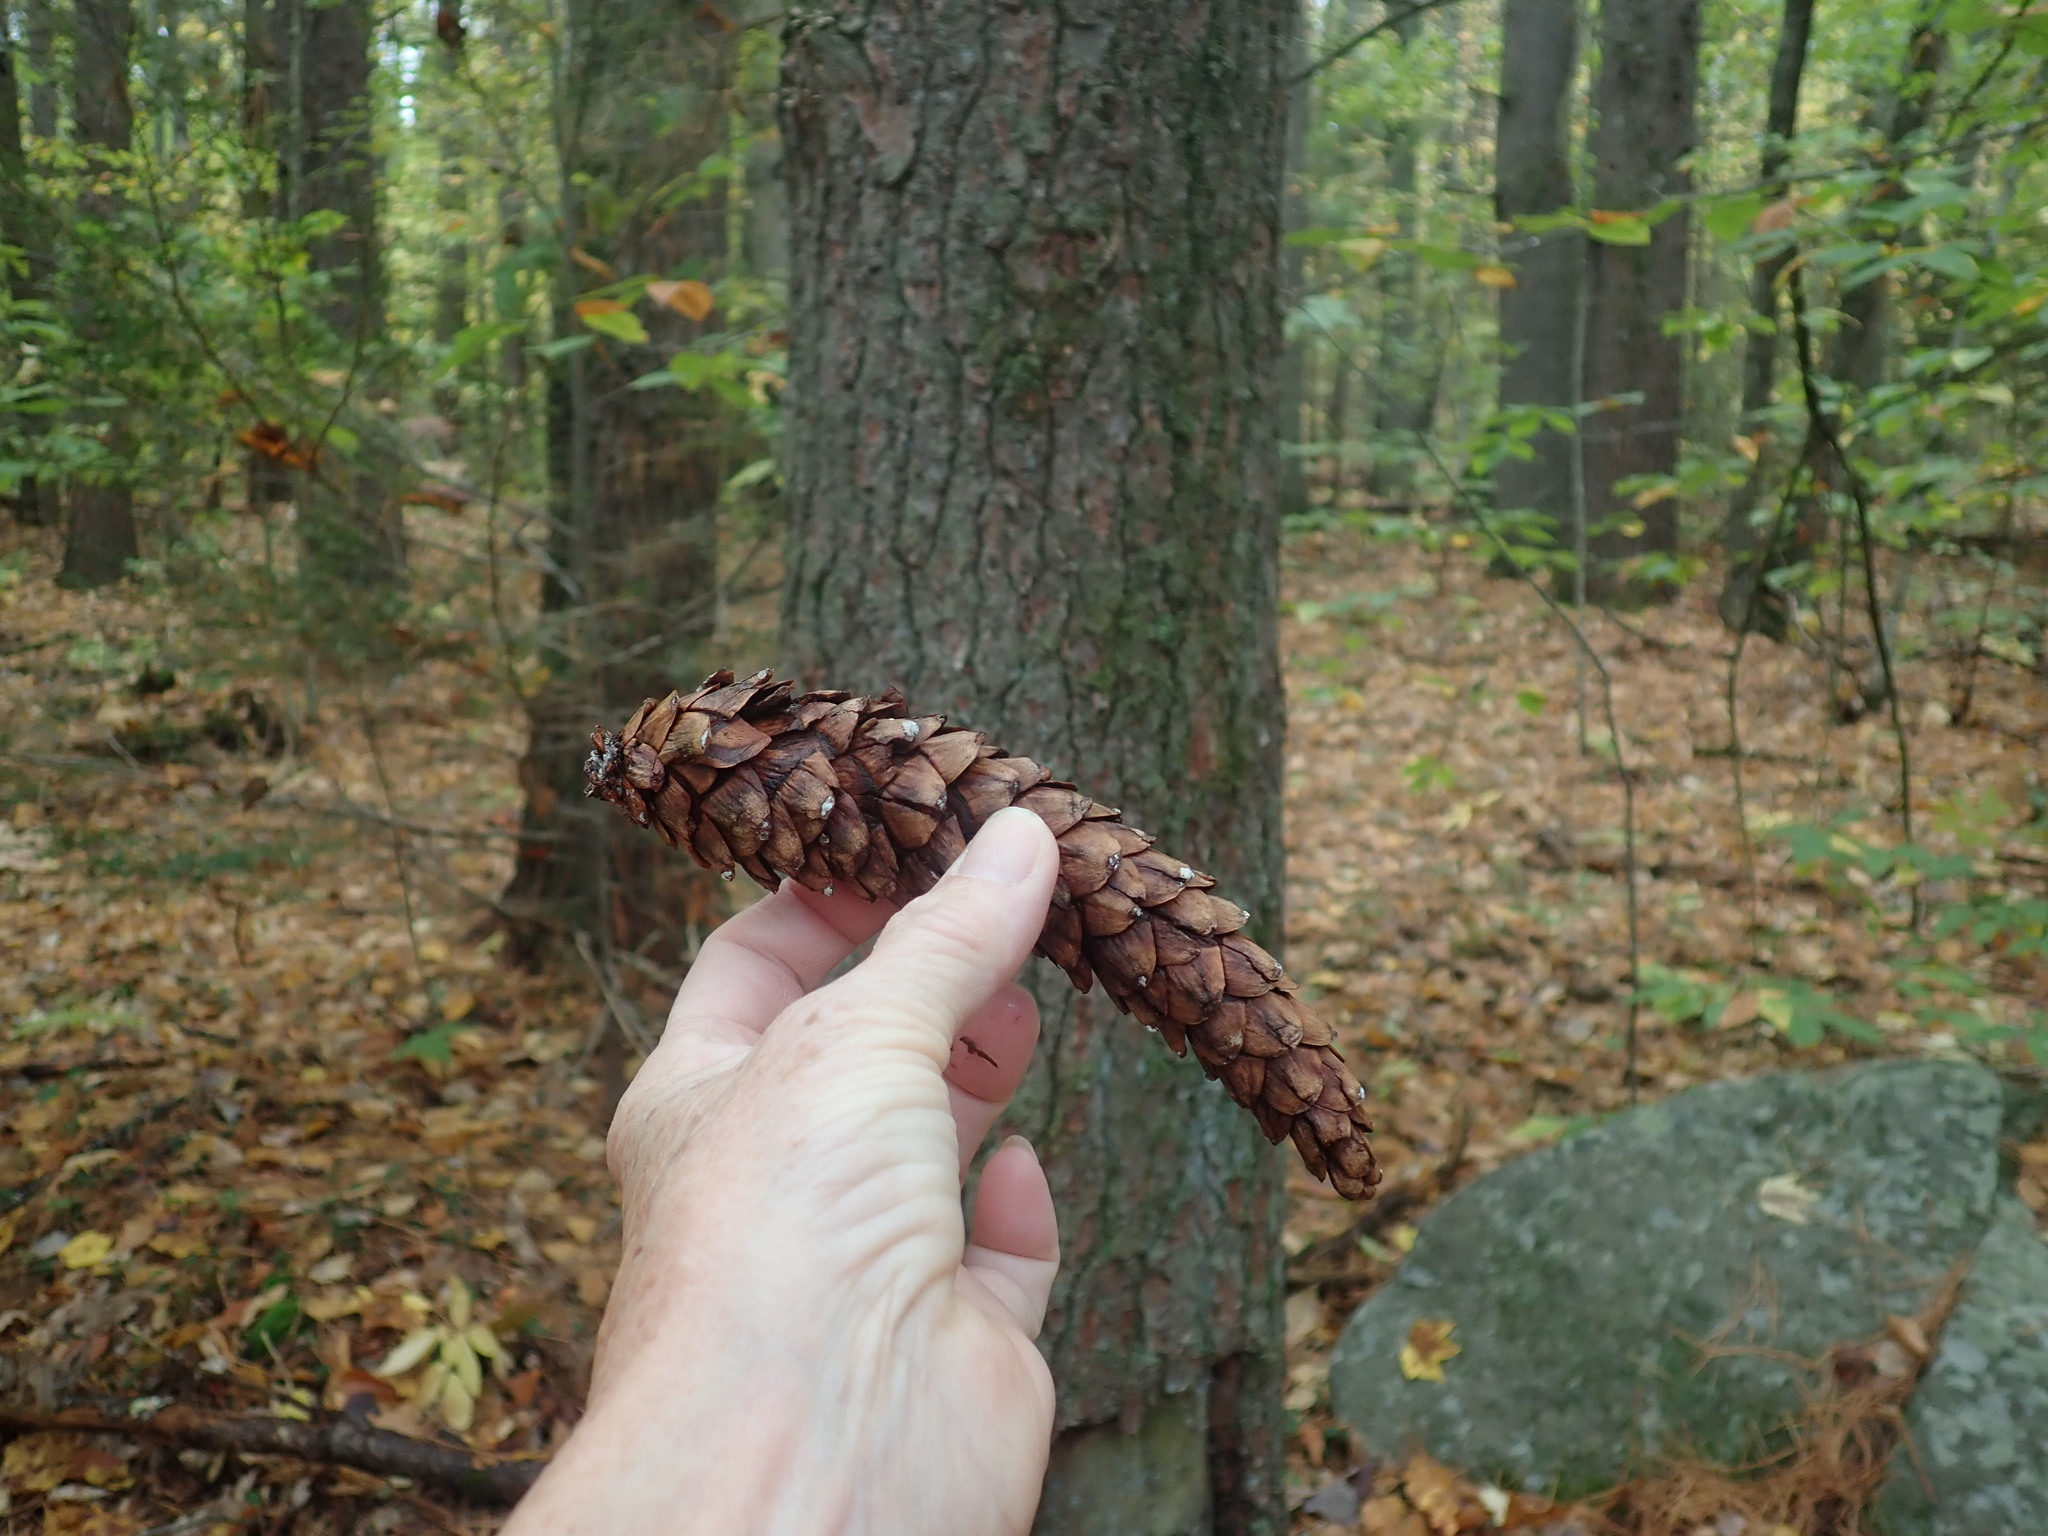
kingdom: Plantae
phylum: Tracheophyta
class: Pinopsida
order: Pinales
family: Pinaceae
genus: Pinus
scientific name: Pinus strobus
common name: Weymouth pine
